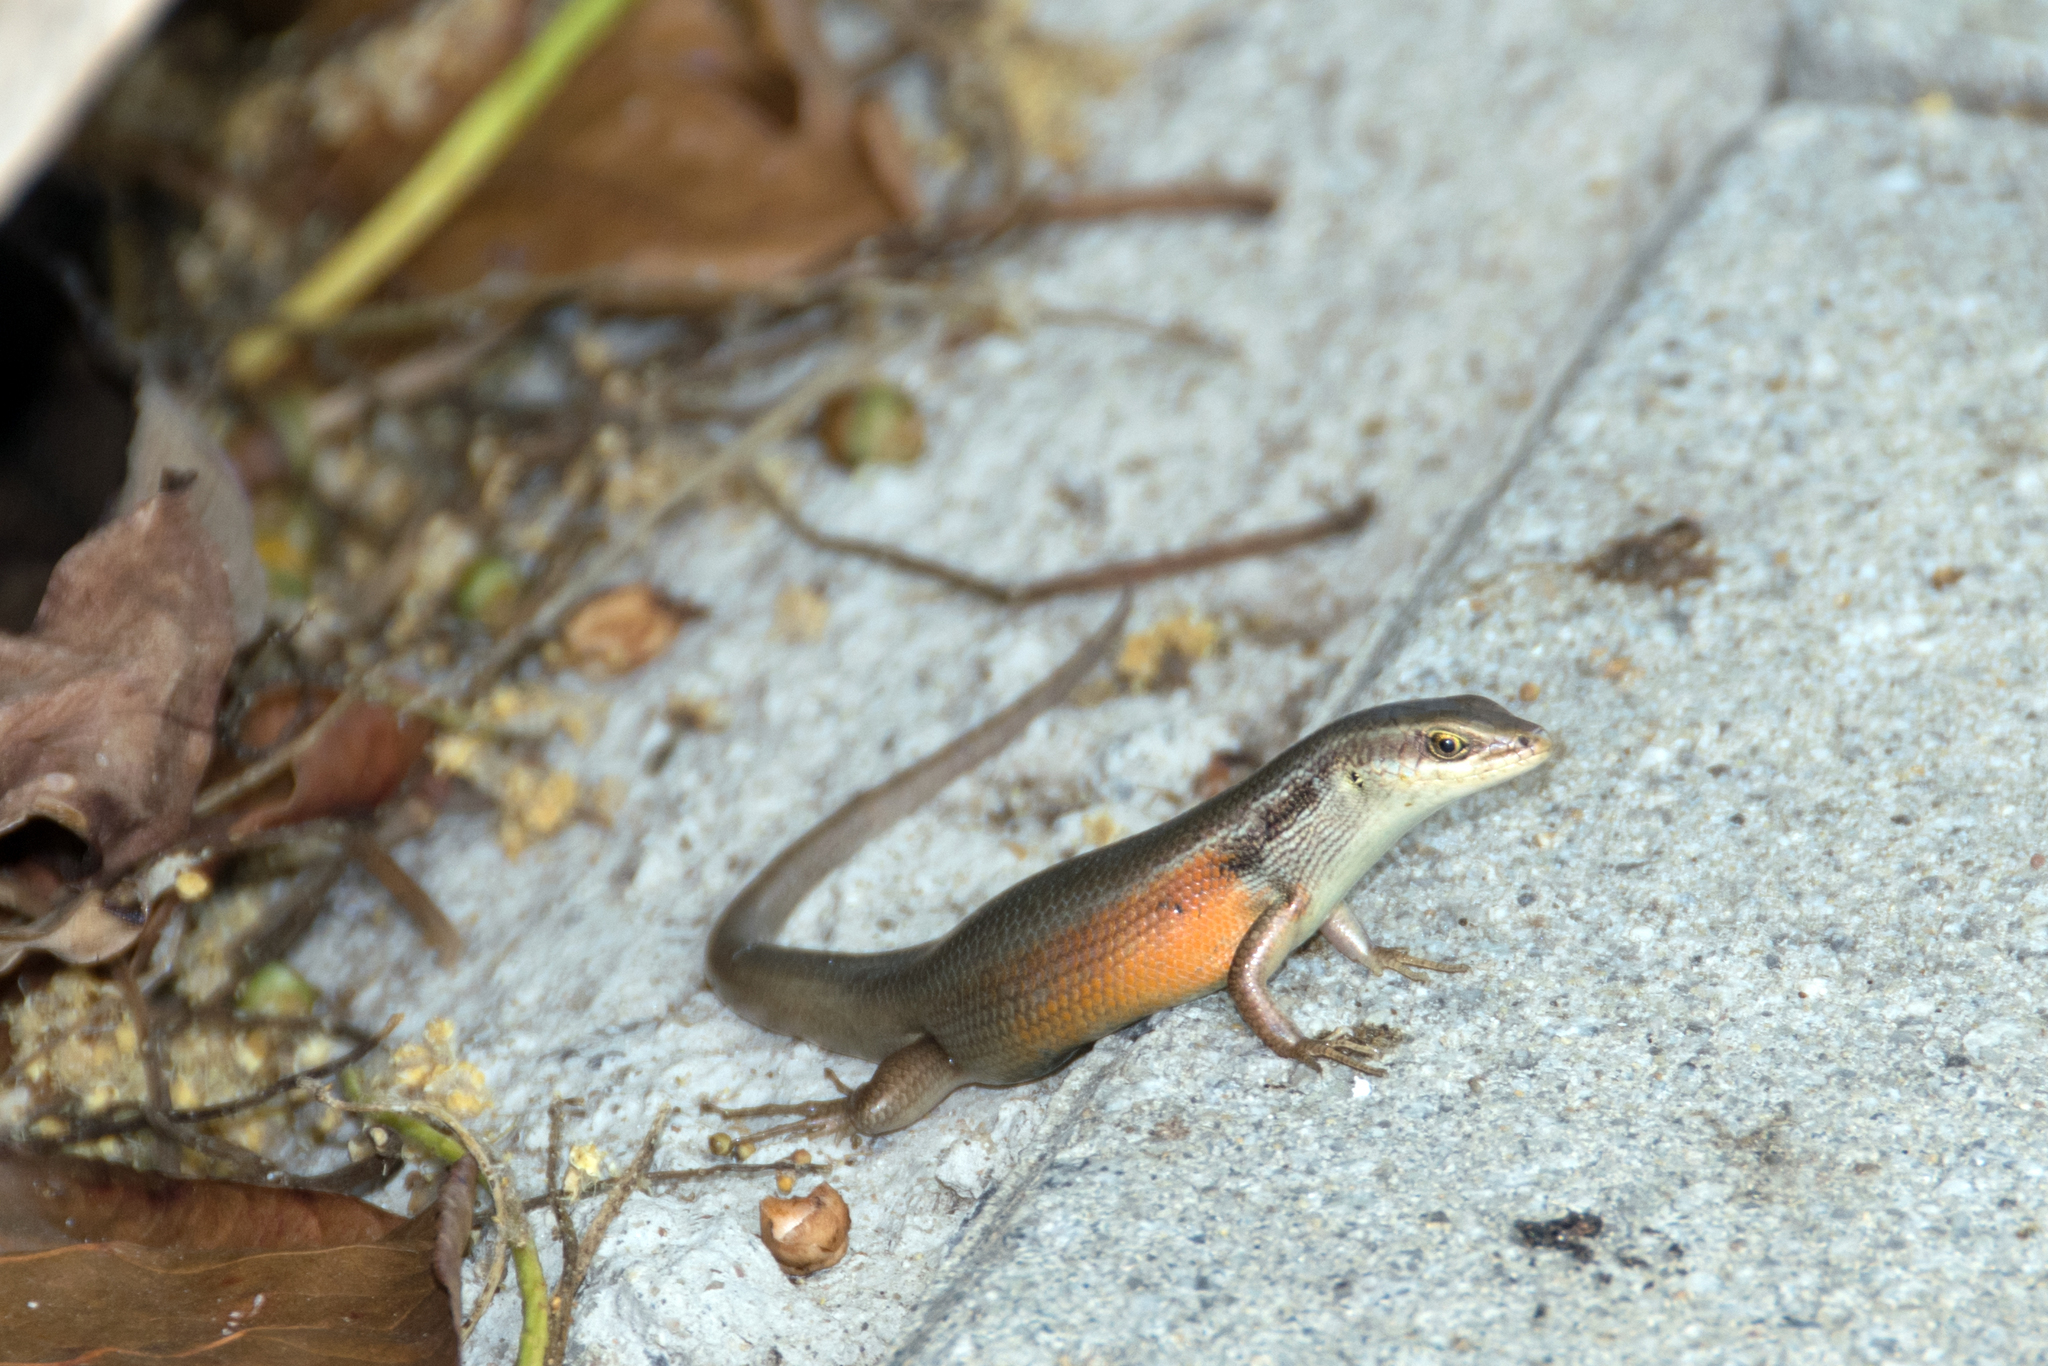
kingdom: Animalia
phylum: Chordata
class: Squamata
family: Scincidae
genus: Carlia
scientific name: Carlia longipes
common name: Closed-litter rainbow-skink
